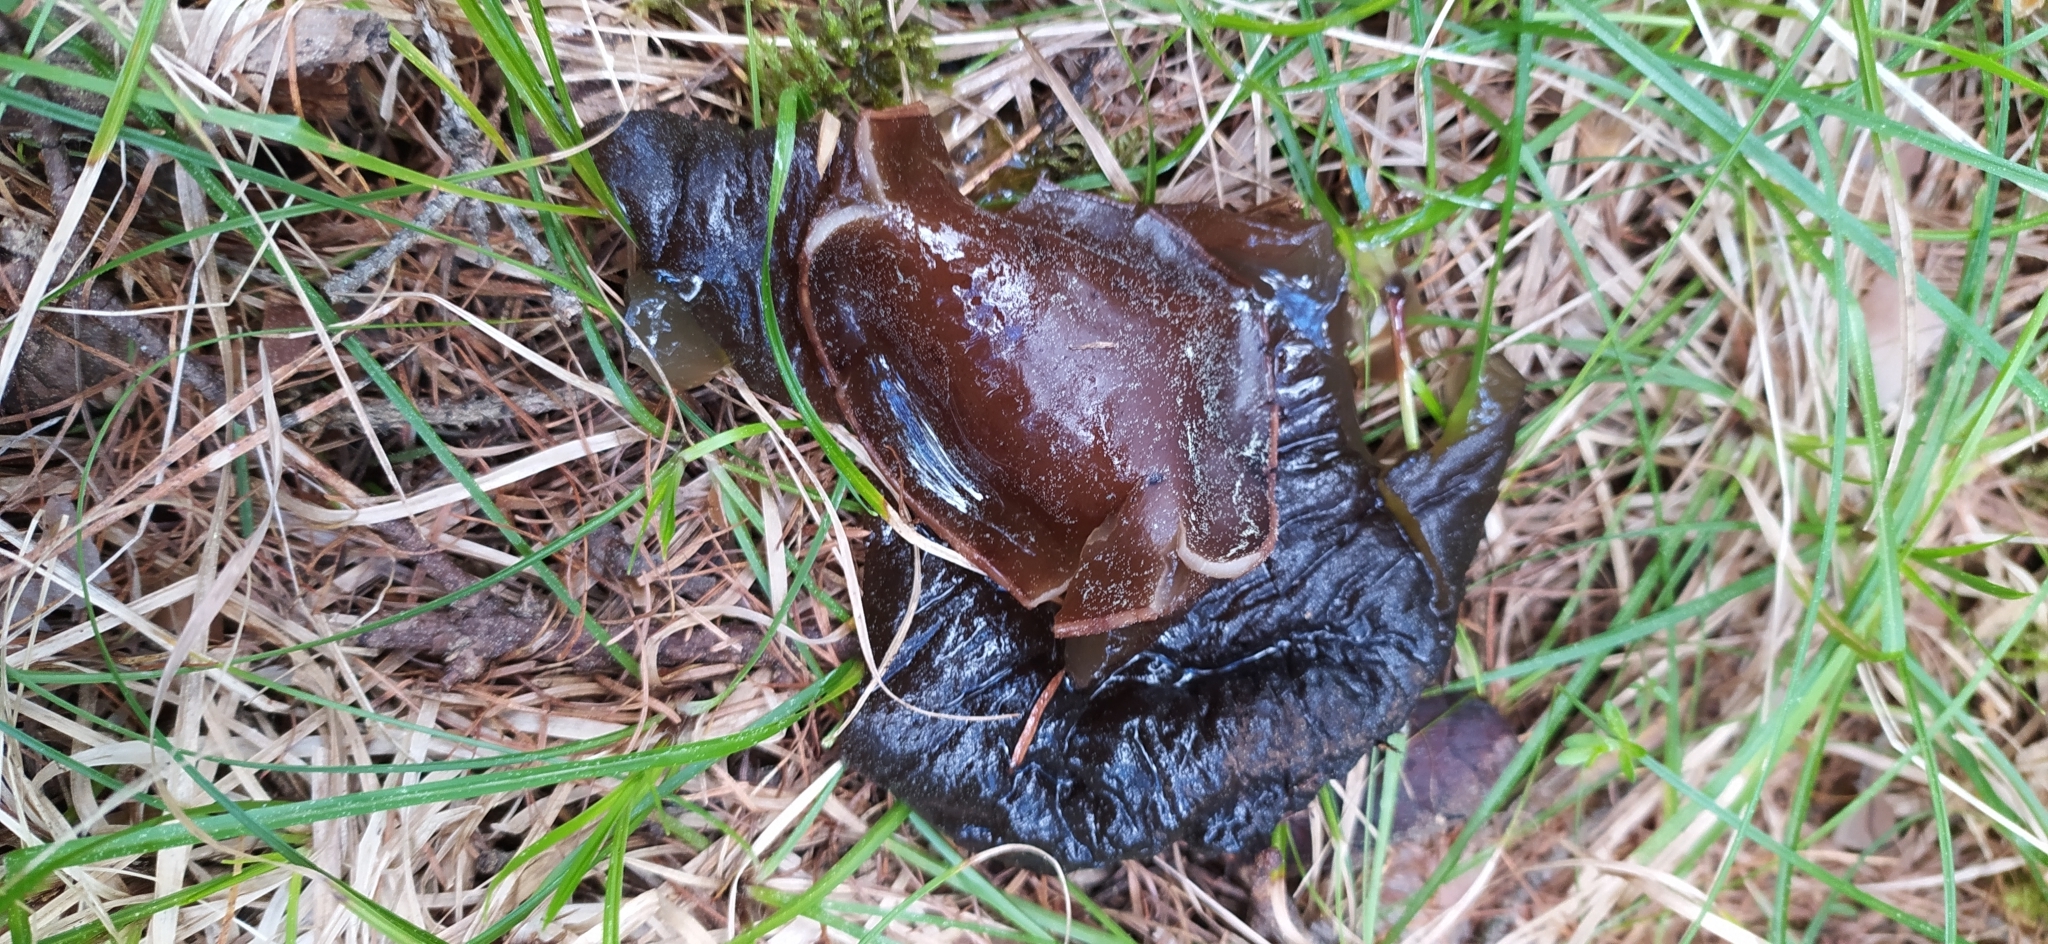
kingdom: Fungi
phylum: Ascomycota
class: Pezizomycetes
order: Pezizales
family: Sarcosomataceae
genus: Sarcosoma
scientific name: Sarcosoma globosum
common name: Charred-pancake cup
